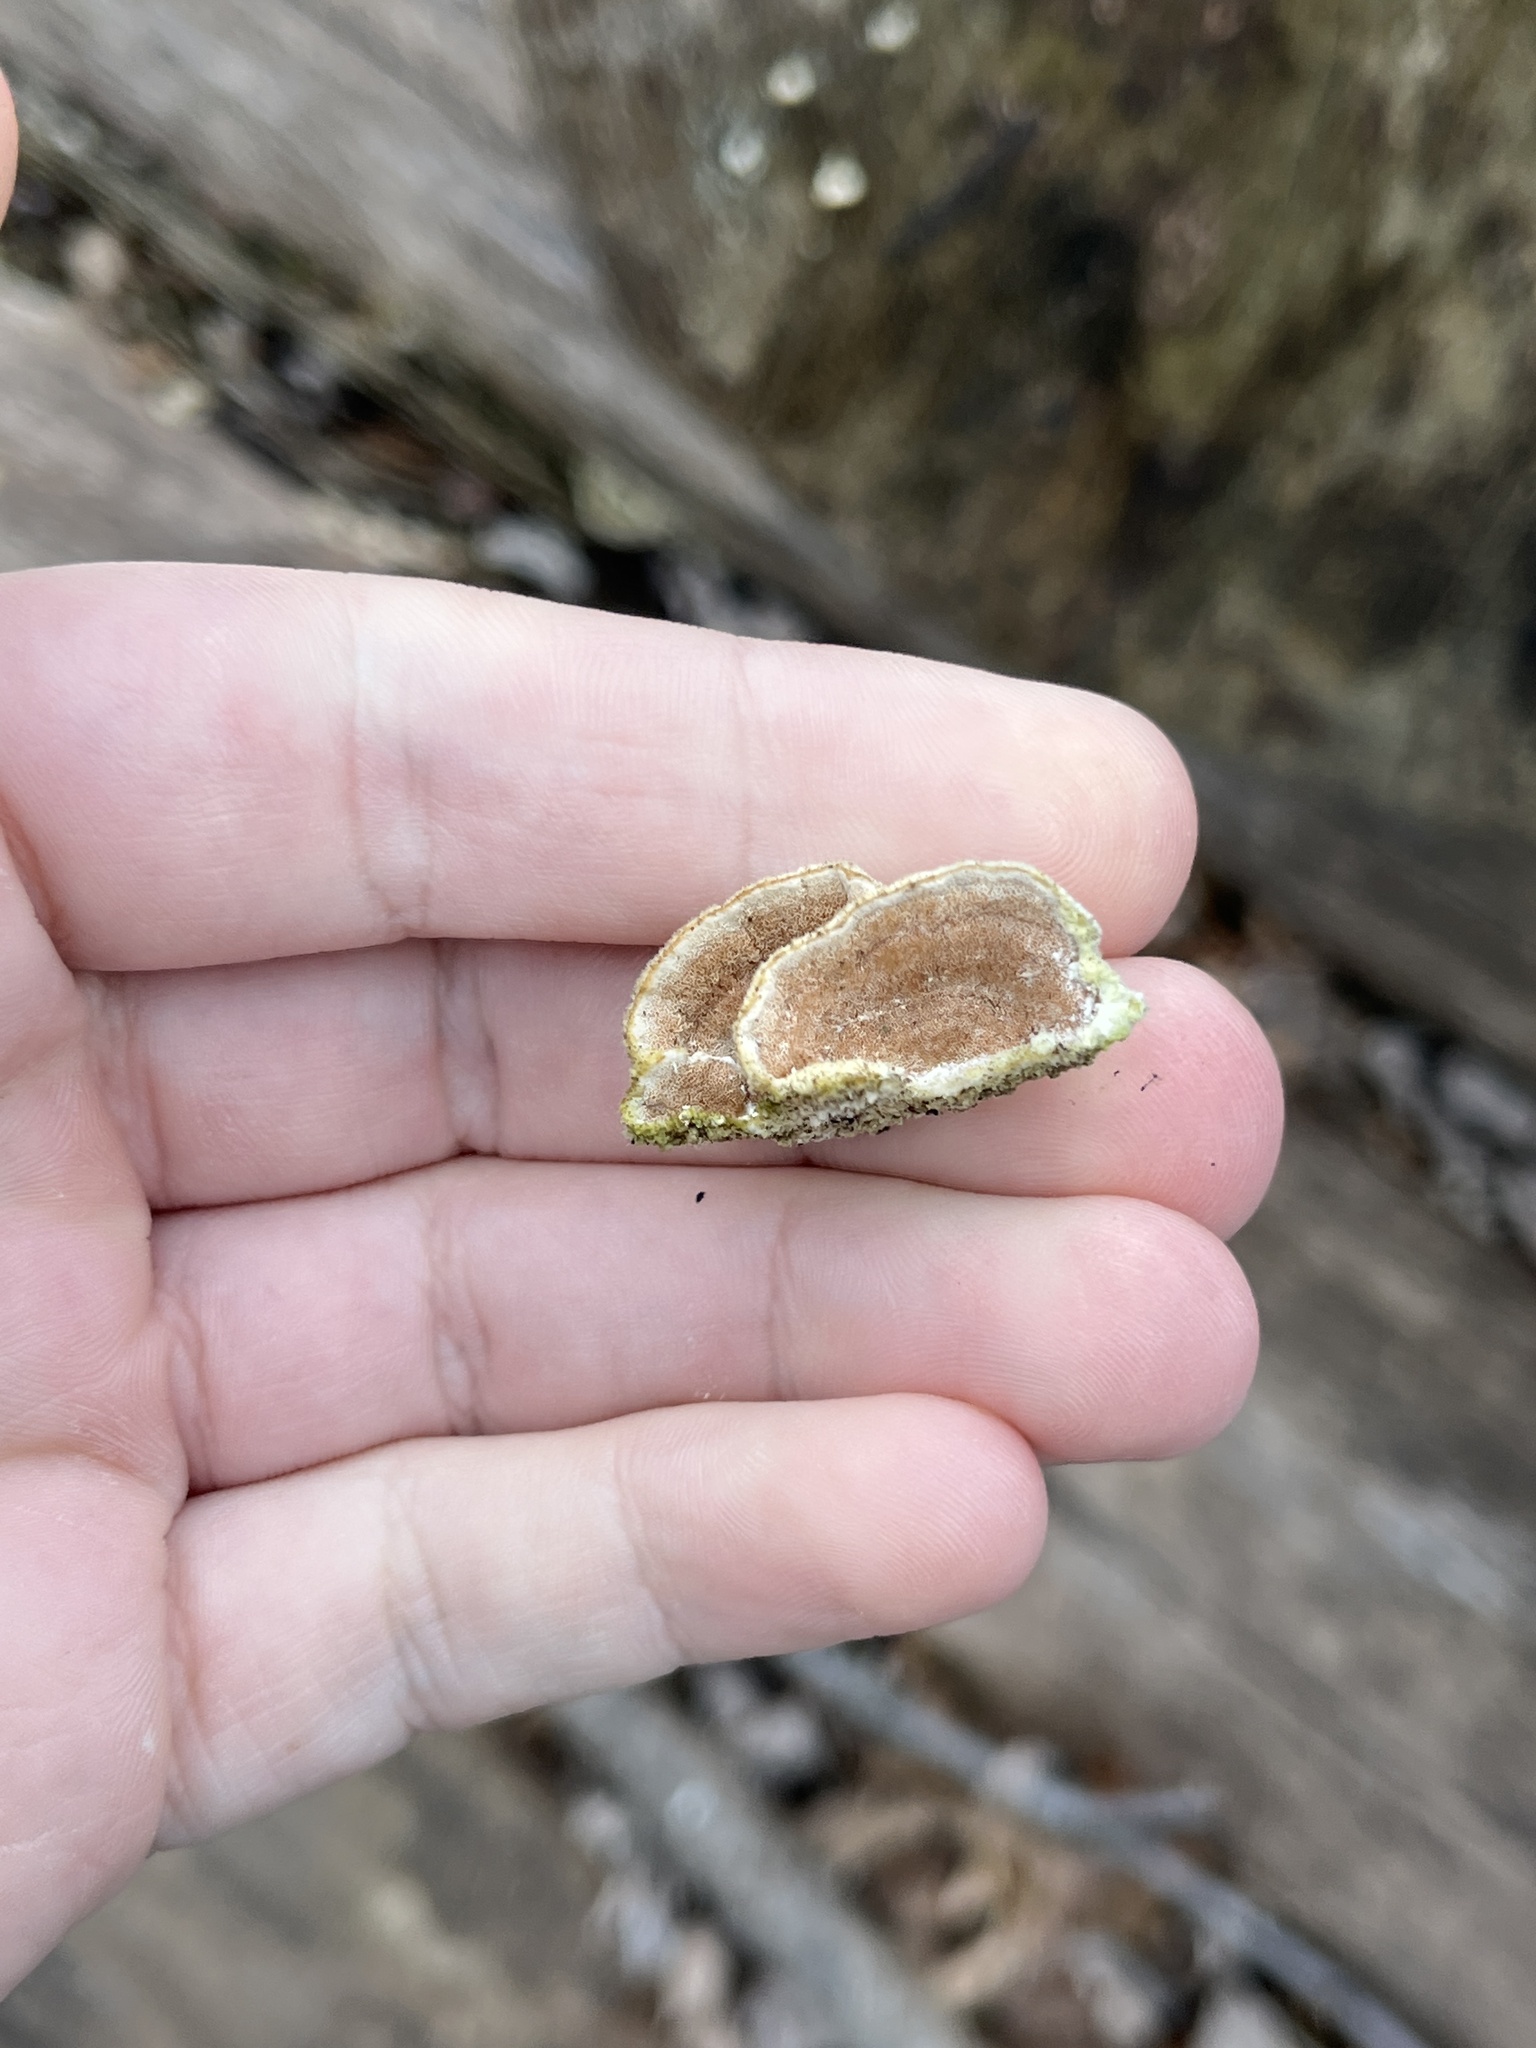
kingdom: Fungi
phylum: Basidiomycota
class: Agaricomycetes
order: Polyporales
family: Irpicaceae
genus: Vitreoporus
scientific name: Vitreoporus dichrous
